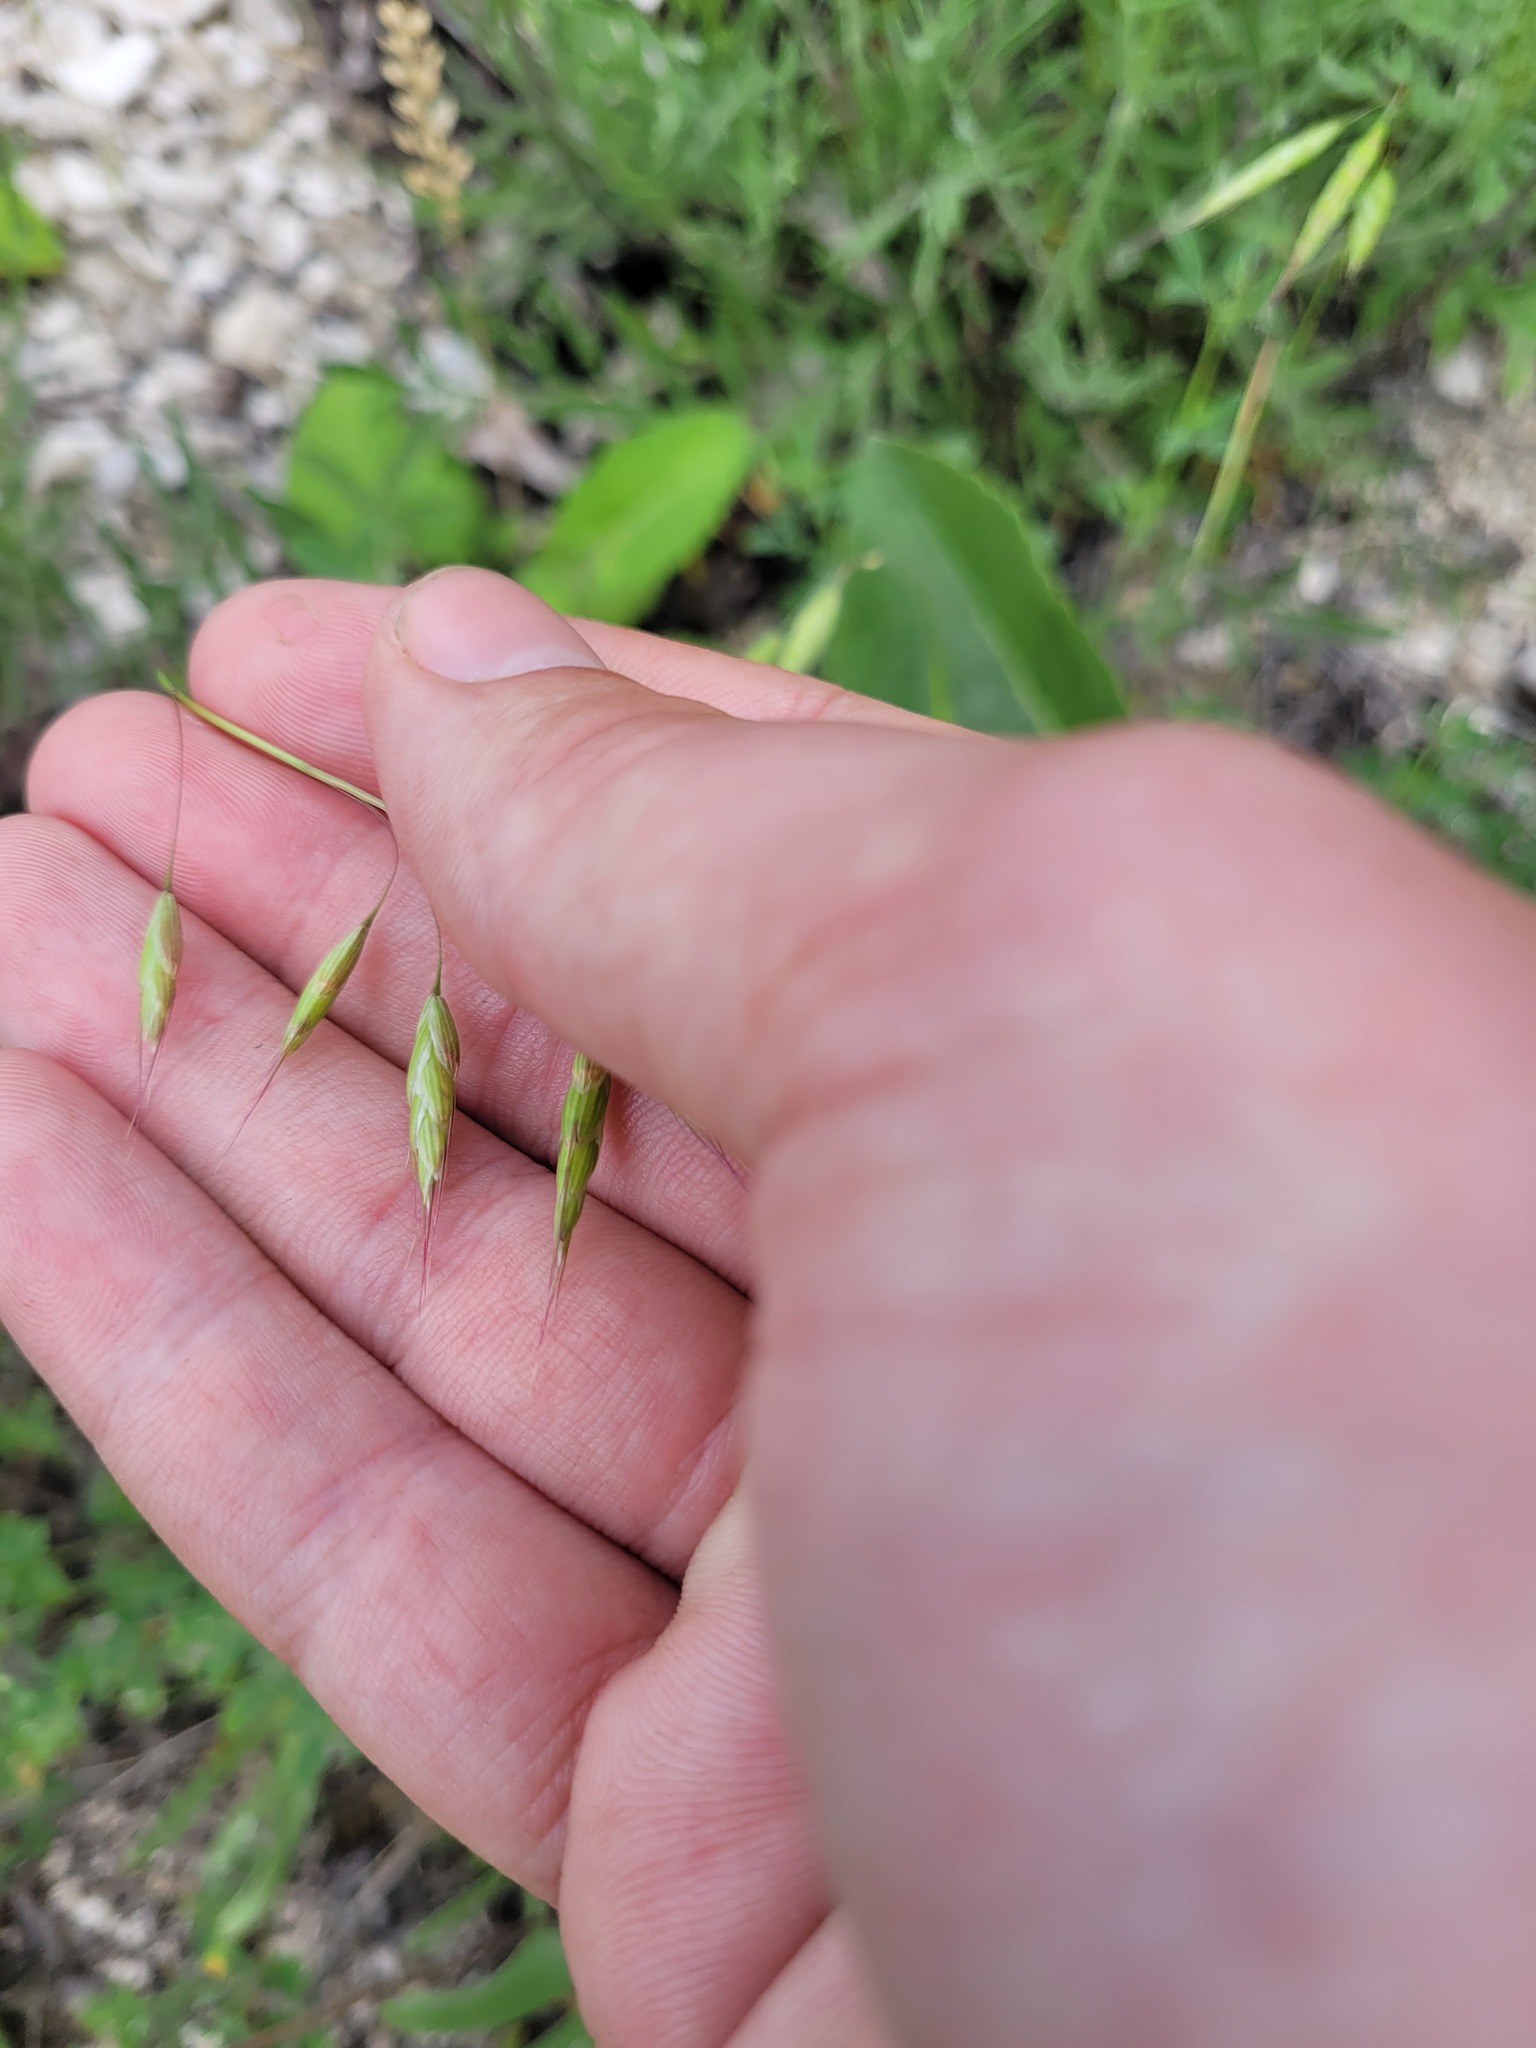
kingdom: Plantae
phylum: Tracheophyta
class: Liliopsida
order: Poales
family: Poaceae
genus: Bromus
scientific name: Bromus squarrosus
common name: Corn brome
